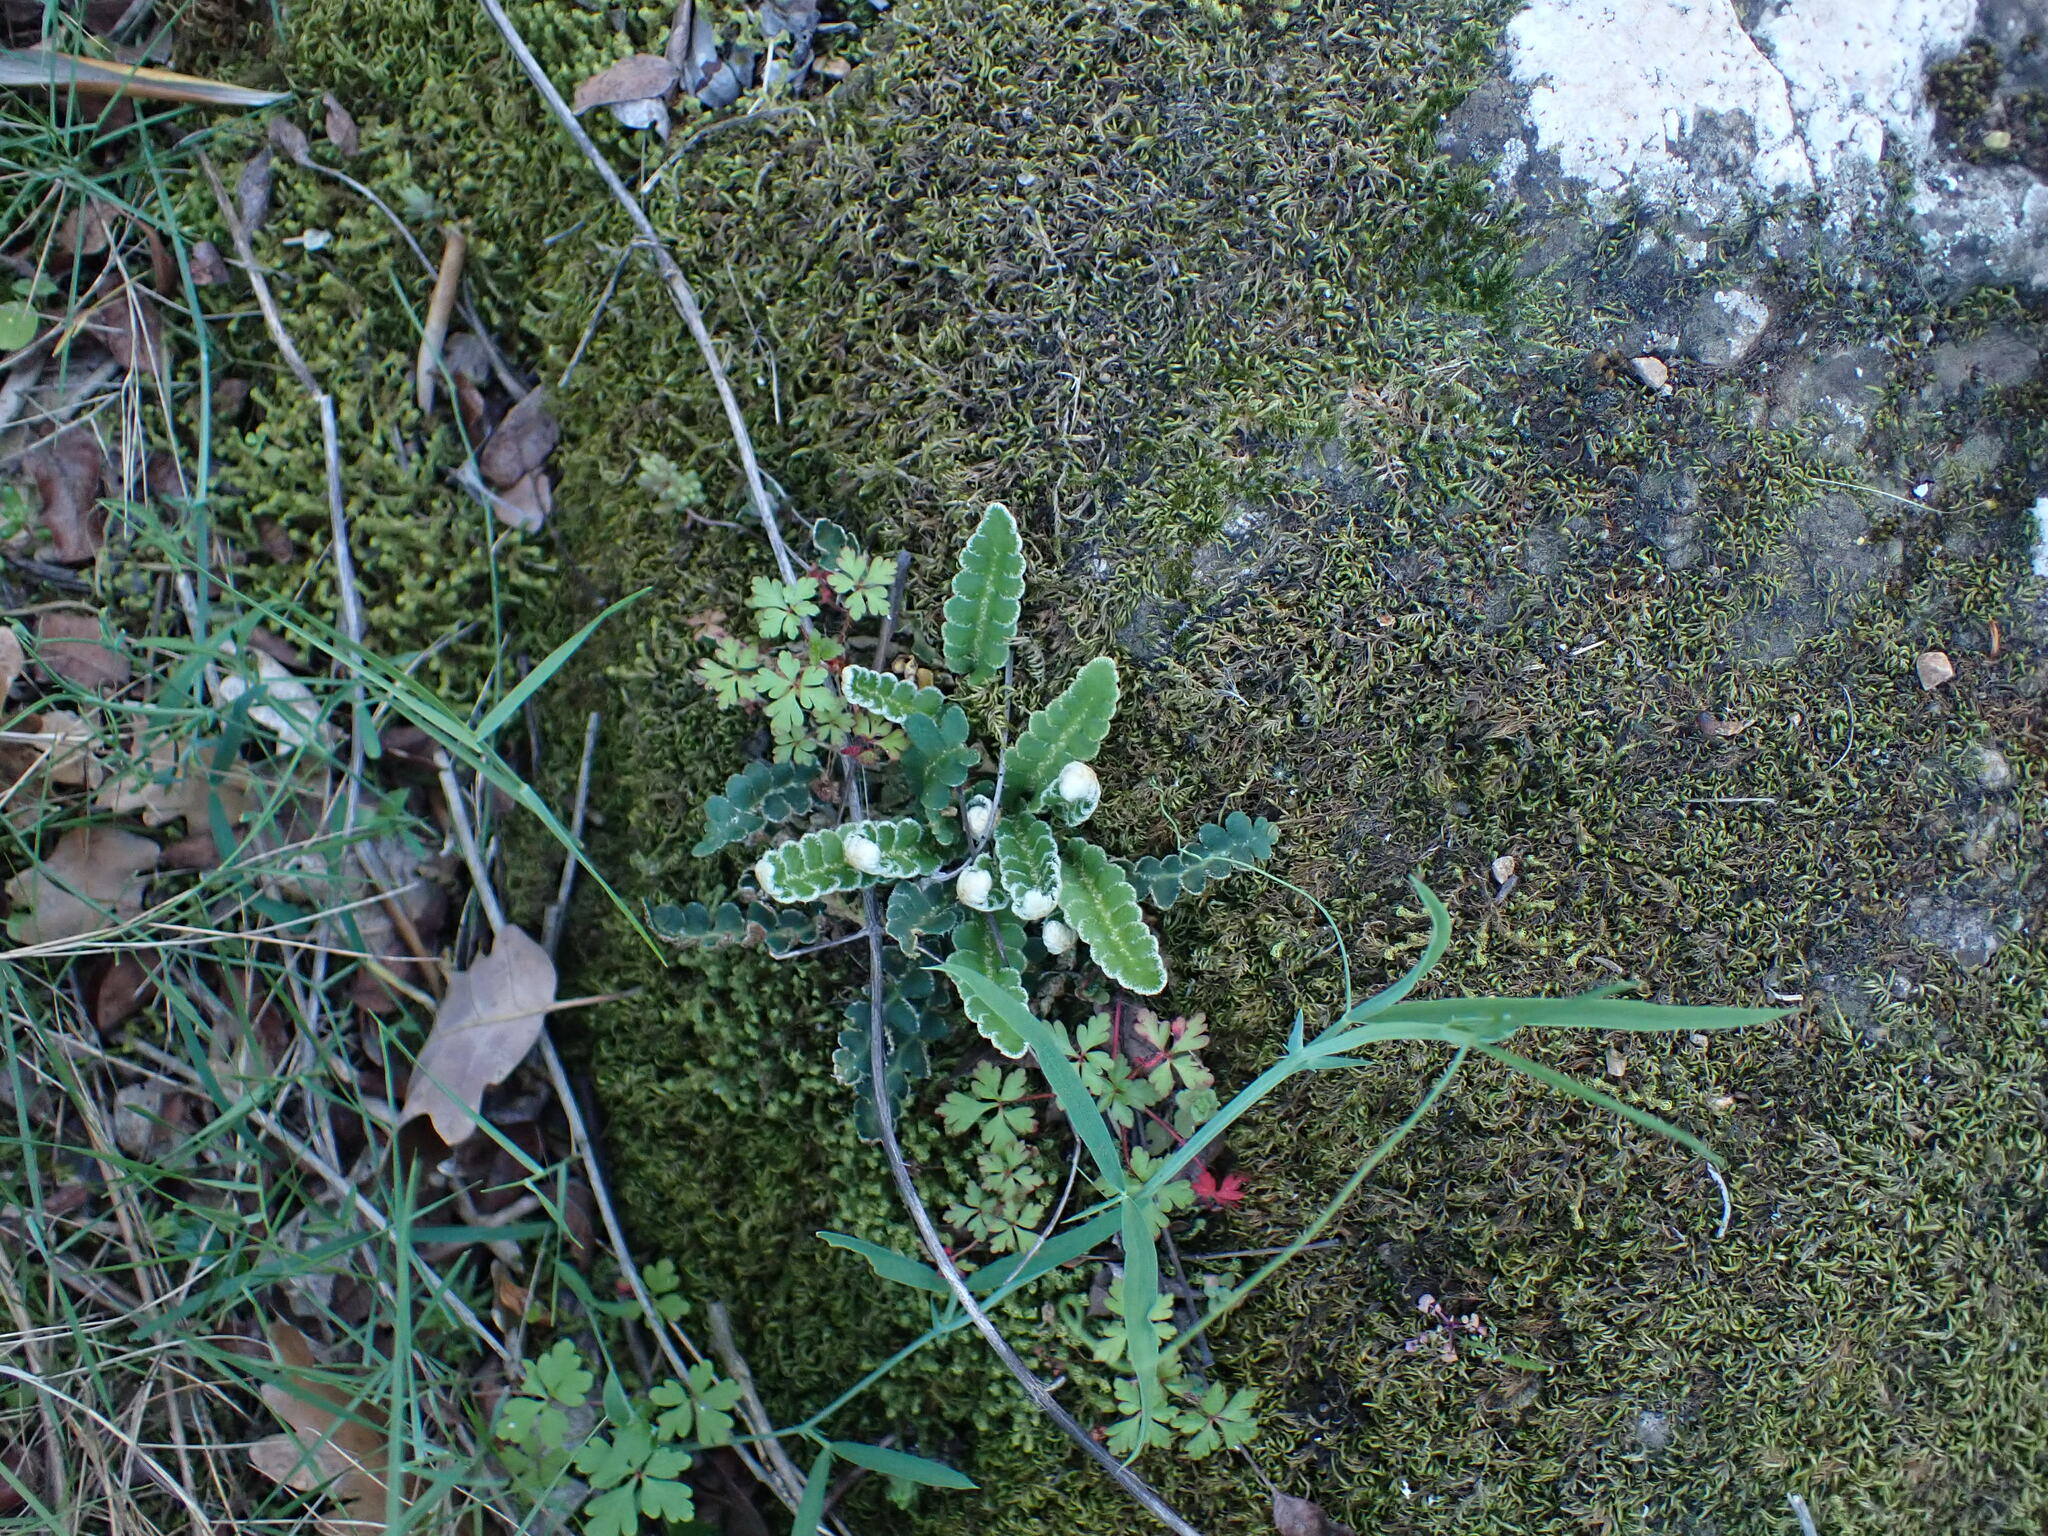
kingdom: Plantae
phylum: Tracheophyta
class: Polypodiopsida
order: Polypodiales
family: Aspleniaceae
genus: Asplenium
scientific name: Asplenium ceterach
